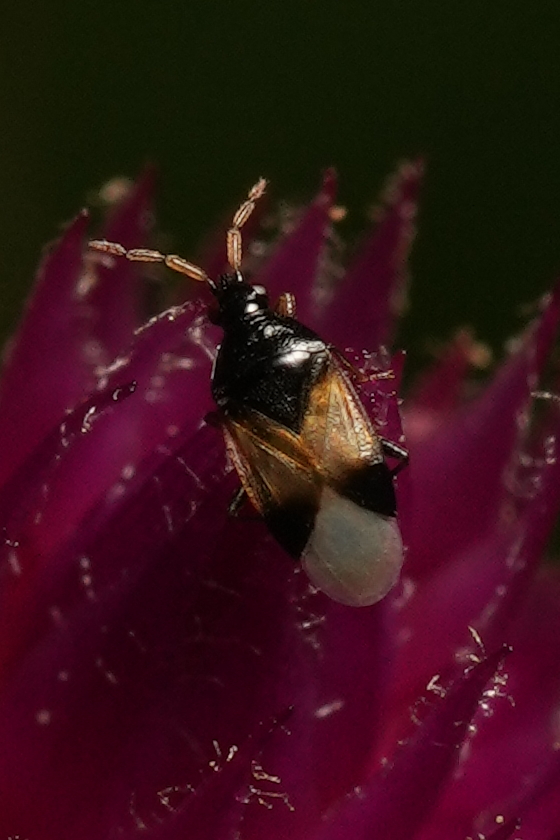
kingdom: Animalia
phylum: Arthropoda
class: Insecta
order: Hemiptera
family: Anthocoridae
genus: Orius
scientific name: Orius insidiosus
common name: Insidious flower bug
